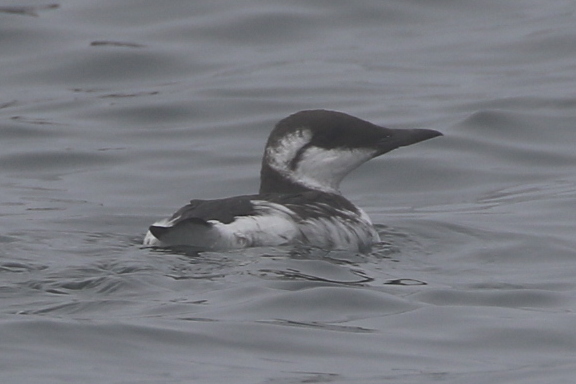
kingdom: Animalia
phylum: Chordata
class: Aves
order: Charadriiformes
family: Alcidae
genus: Uria
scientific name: Uria aalge
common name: Common murre
